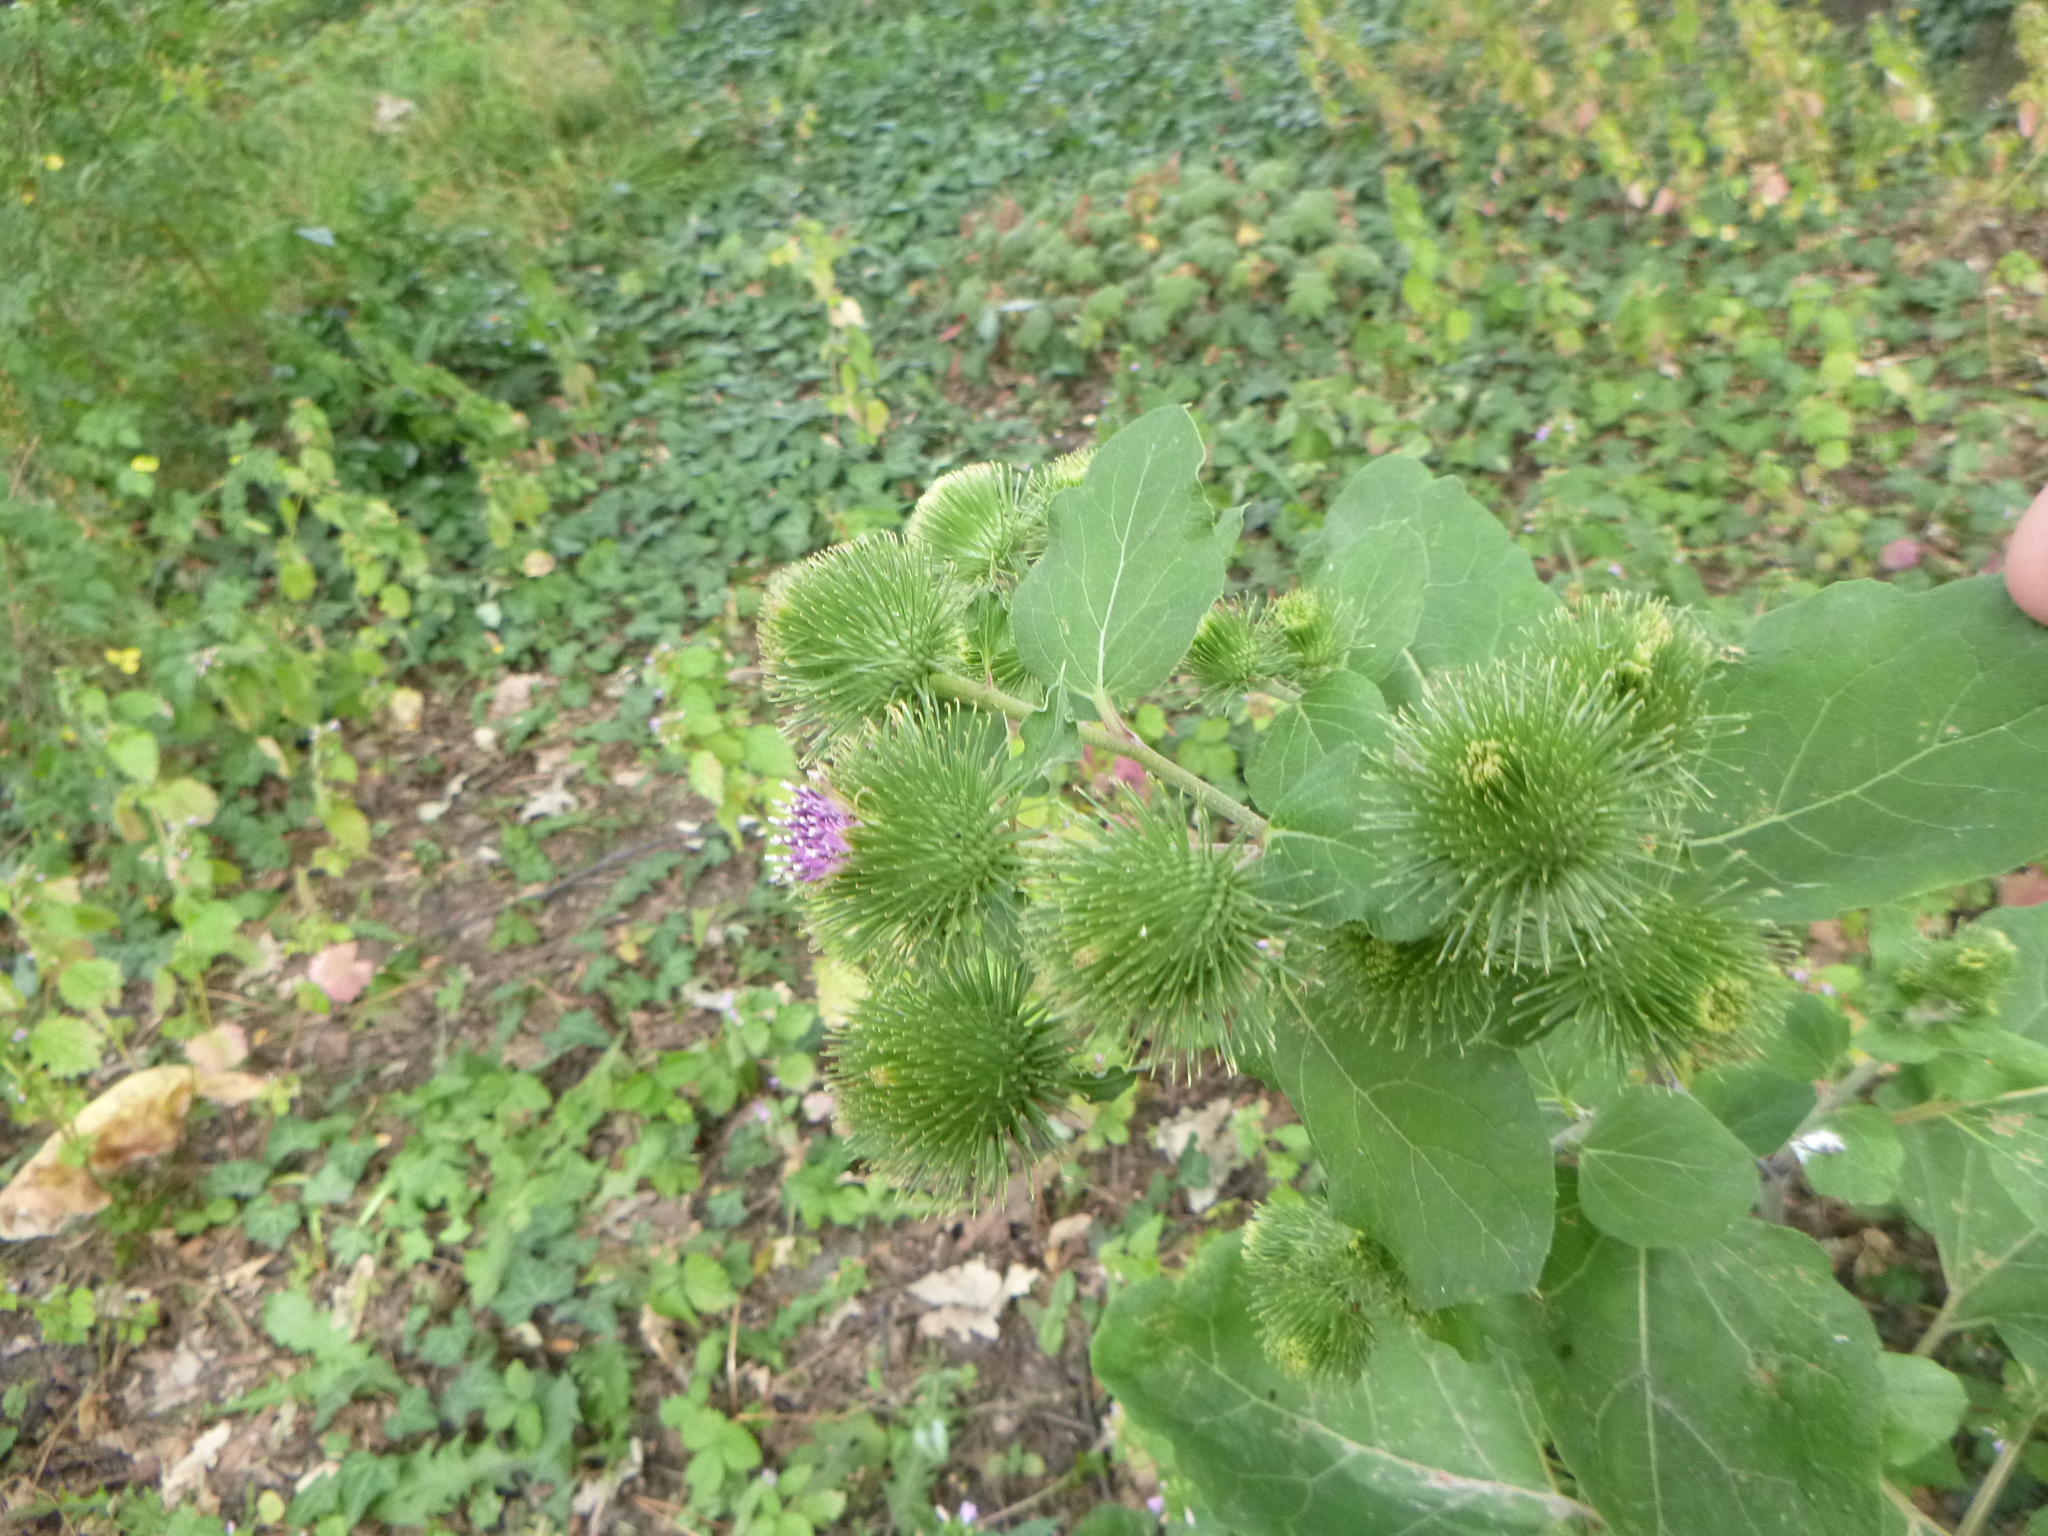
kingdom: Plantae
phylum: Tracheophyta
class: Magnoliopsida
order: Asterales
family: Asteraceae
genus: Arctium
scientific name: Arctium lappa
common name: Greater burdock
